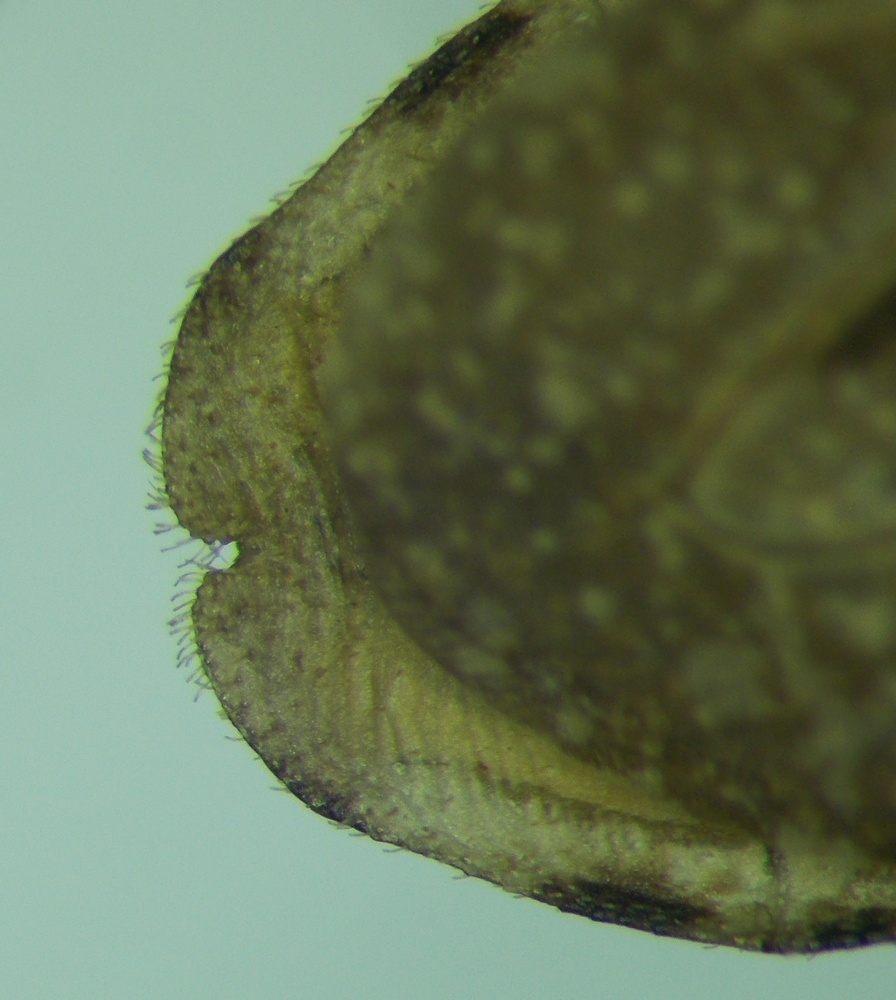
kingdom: Animalia
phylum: Arthropoda
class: Insecta
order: Hemiptera
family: Reduviidae
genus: Oncocephalus
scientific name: Oncocephalus brachymerus
